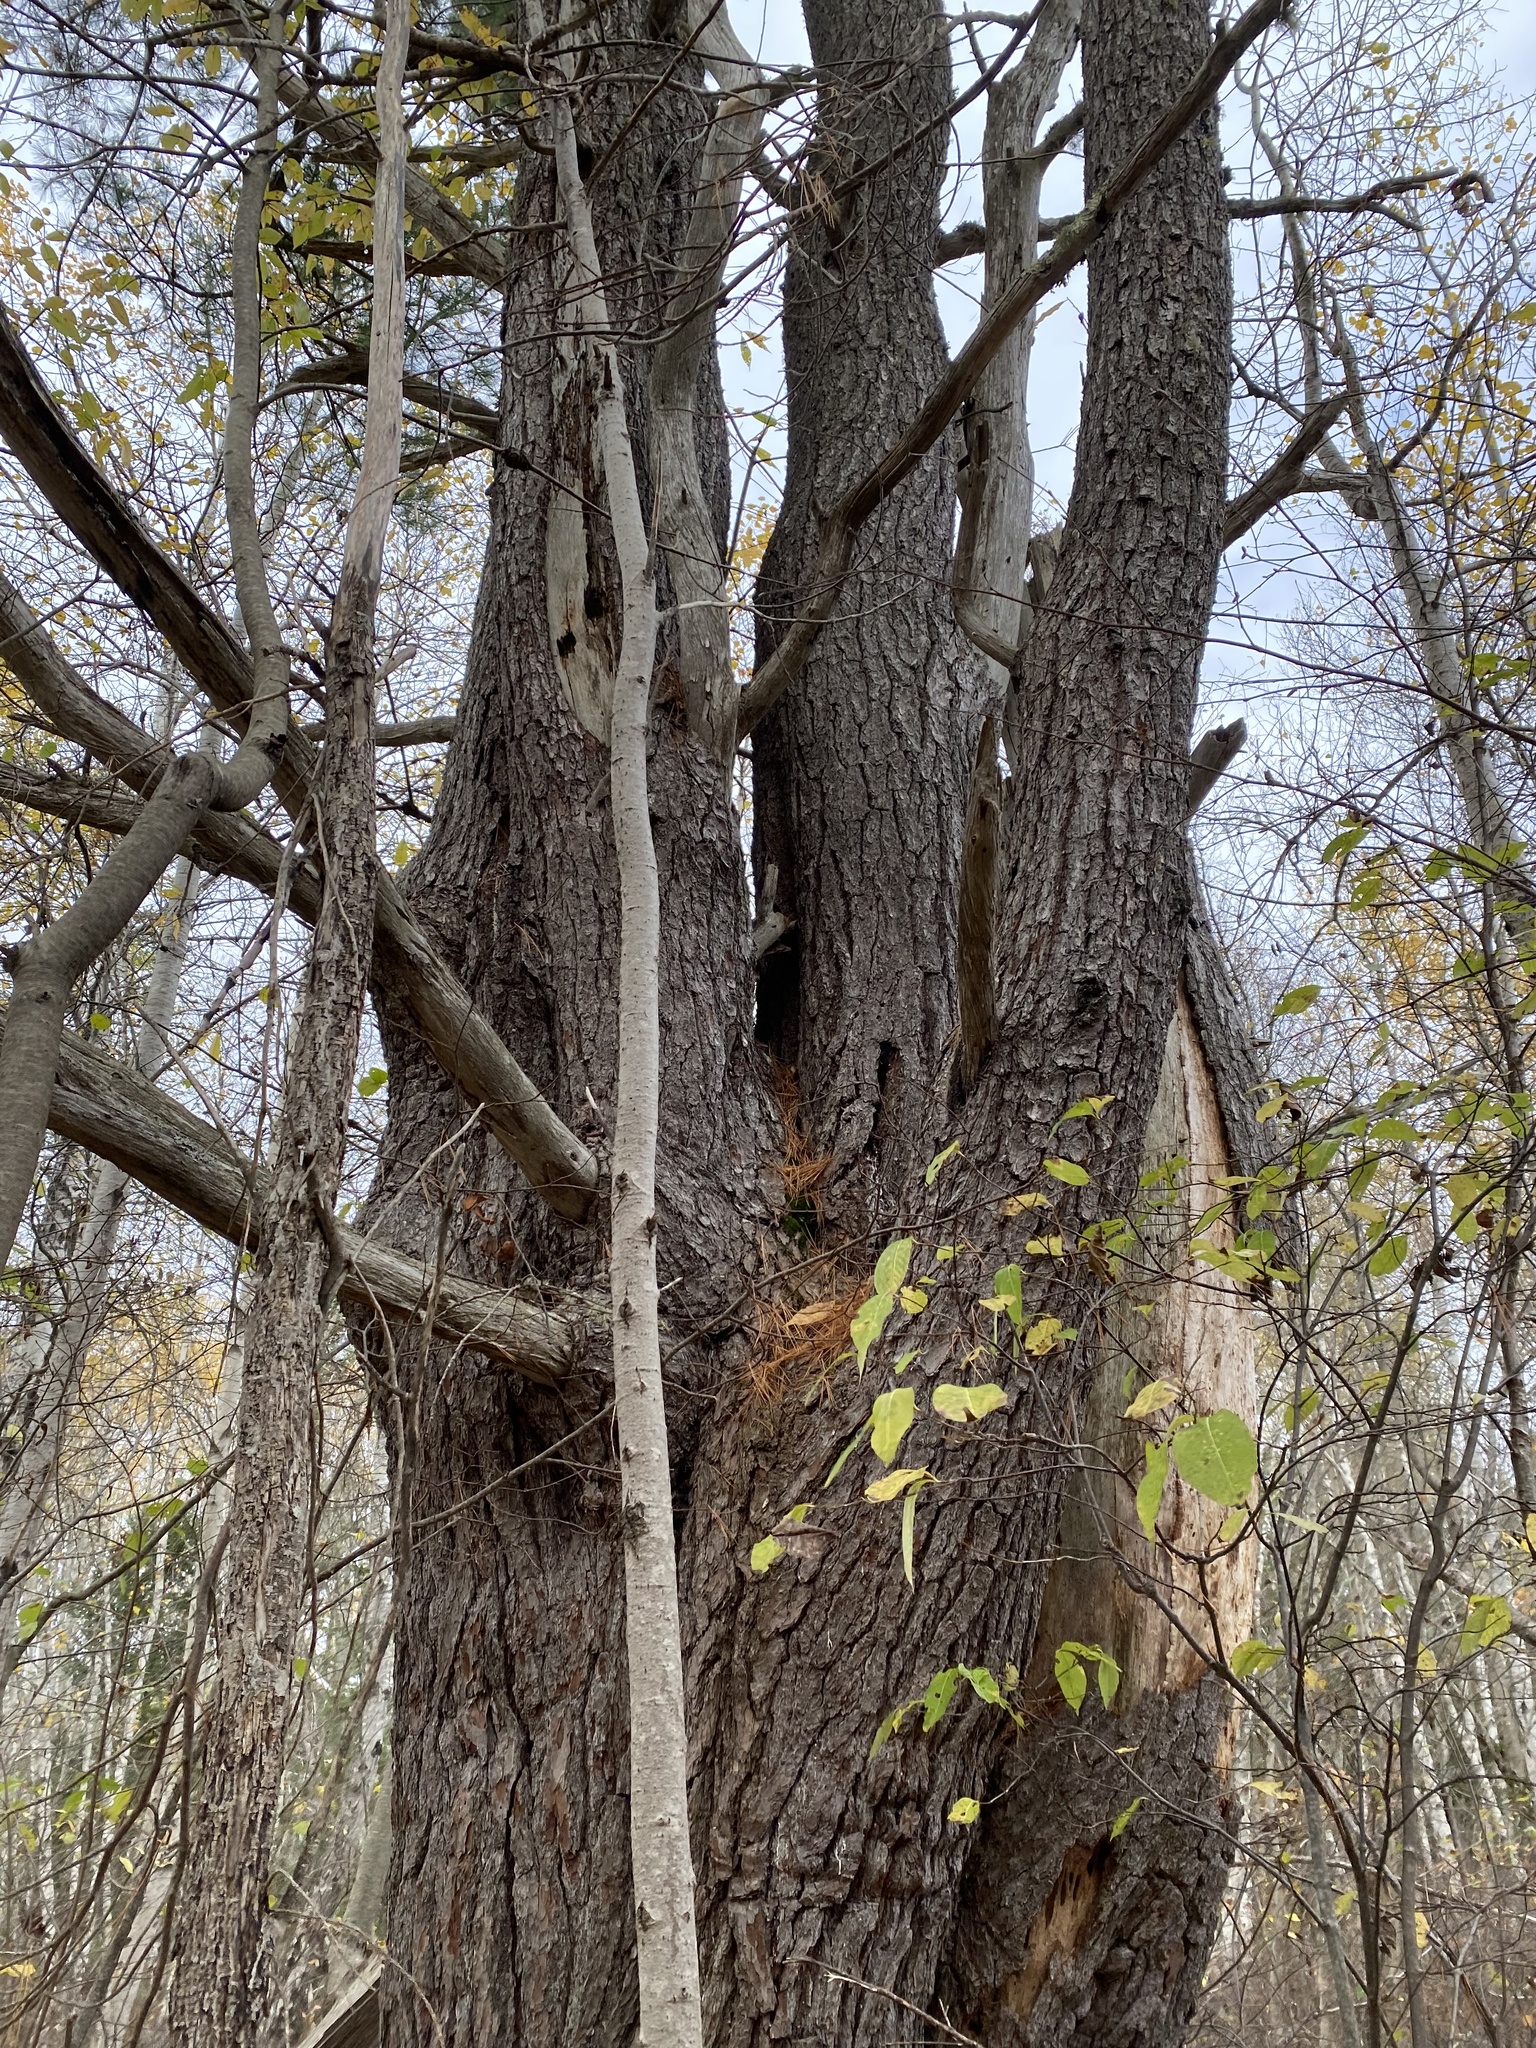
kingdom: Plantae
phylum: Tracheophyta
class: Pinopsida
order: Pinales
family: Pinaceae
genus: Pinus
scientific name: Pinus strobus
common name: Weymouth pine
